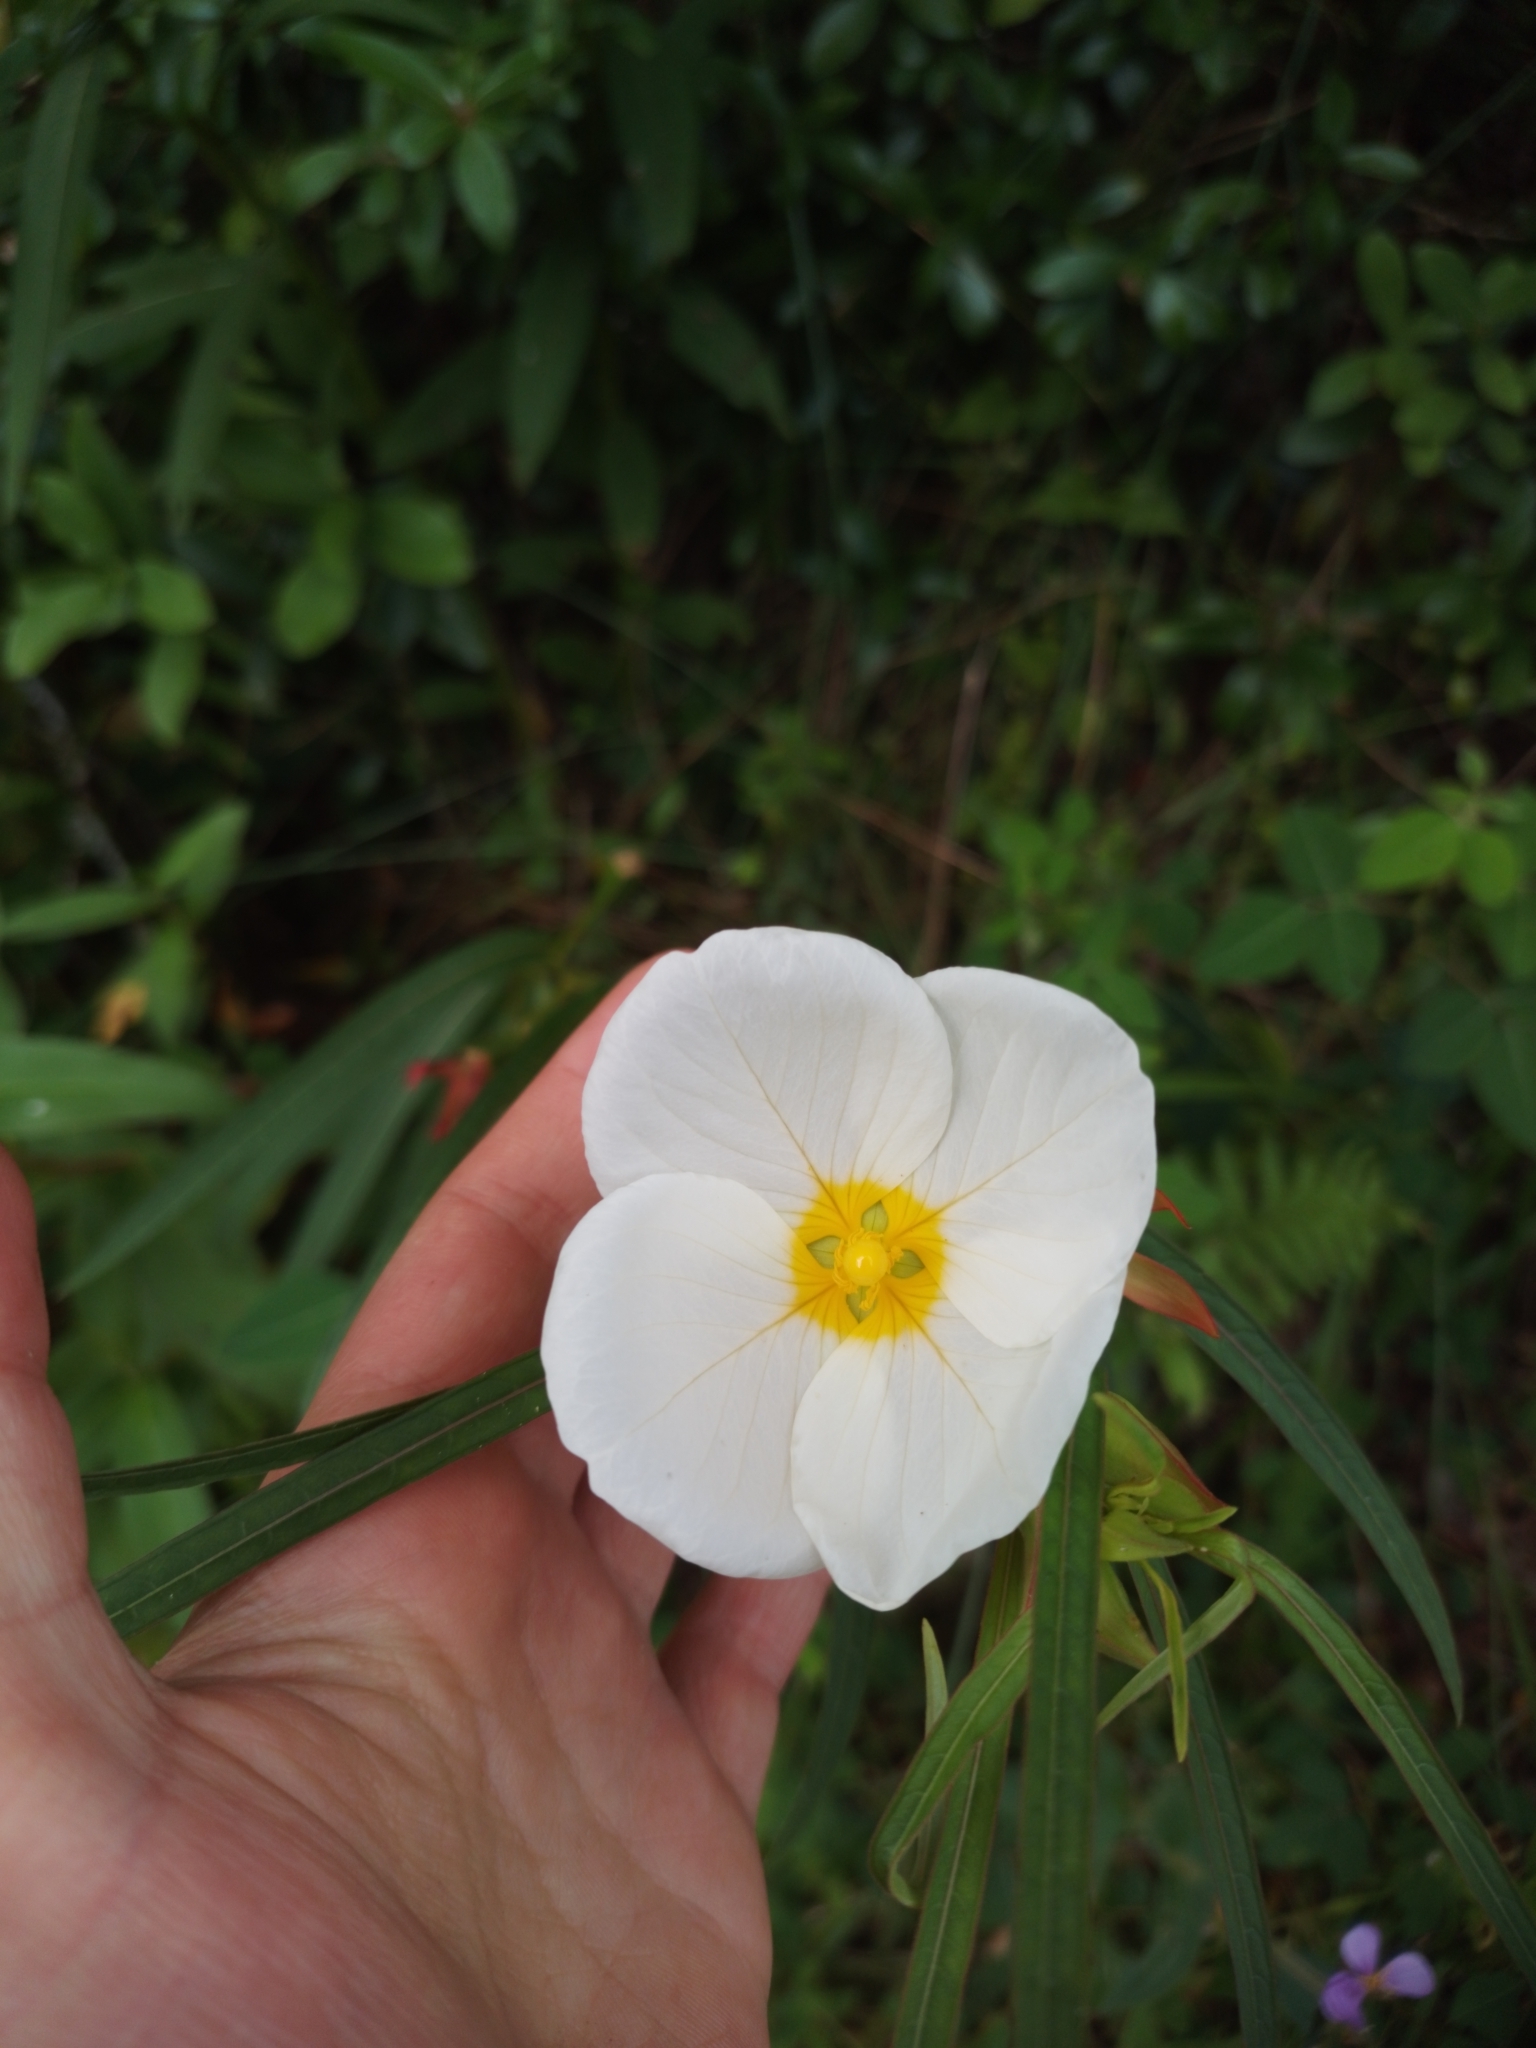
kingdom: Plantae
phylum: Tracheophyta
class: Magnoliopsida
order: Myrtales
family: Onagraceae
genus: Ludwigia
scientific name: Ludwigia major
